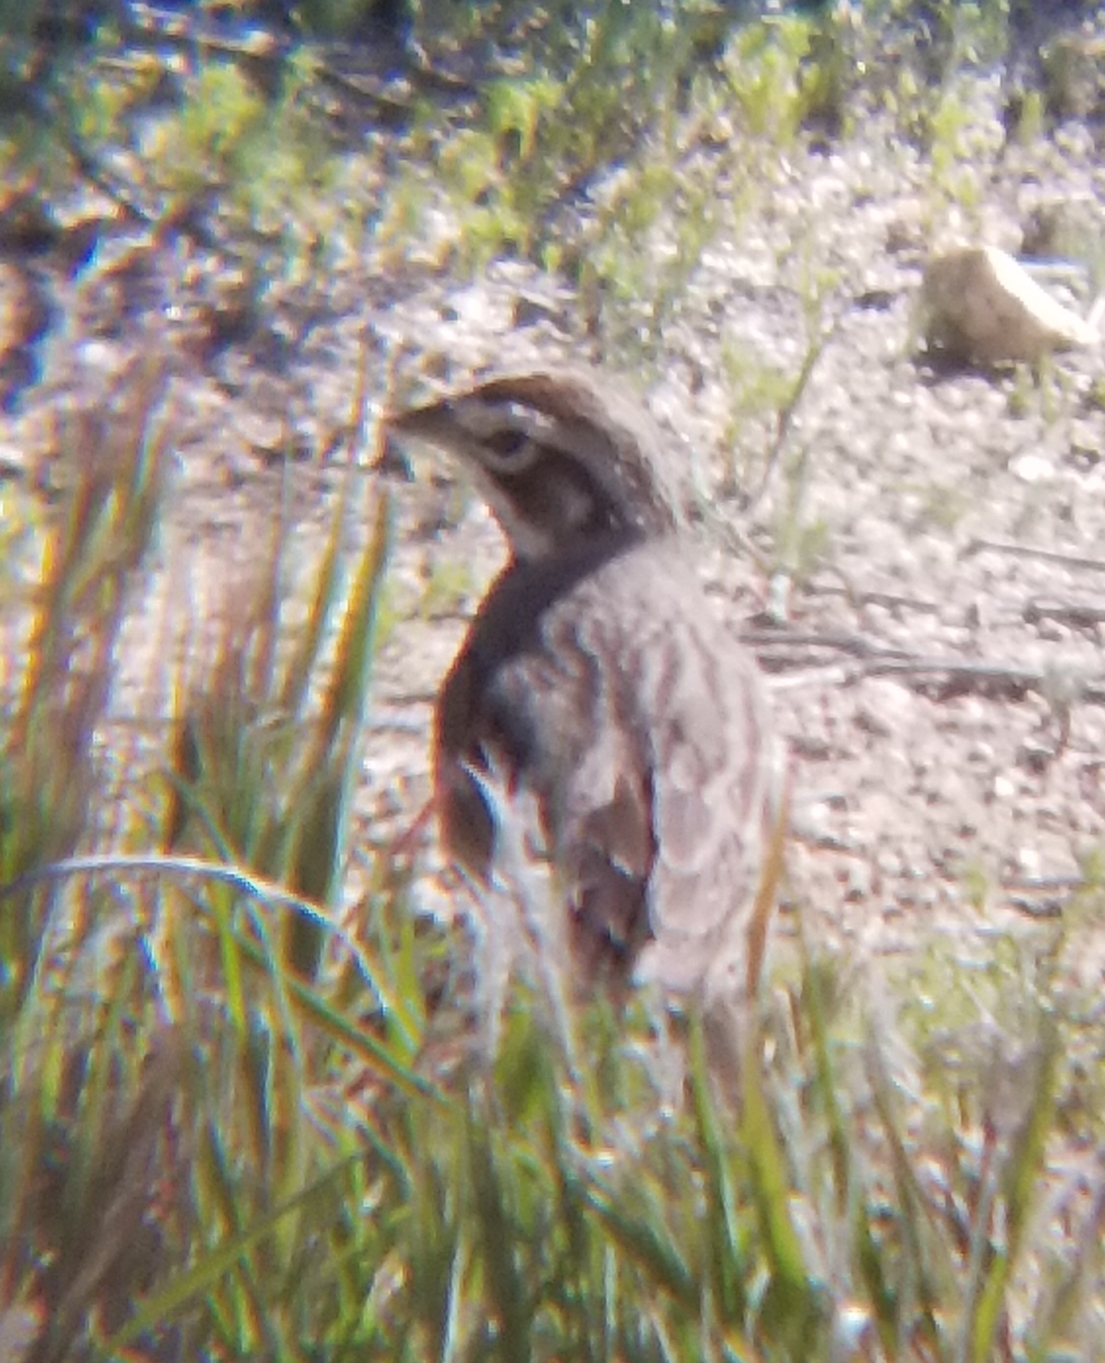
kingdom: Animalia
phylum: Chordata
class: Aves
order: Passeriformes
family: Icteridae
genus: Sturnella
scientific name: Sturnella neglecta
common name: Western meadowlark
